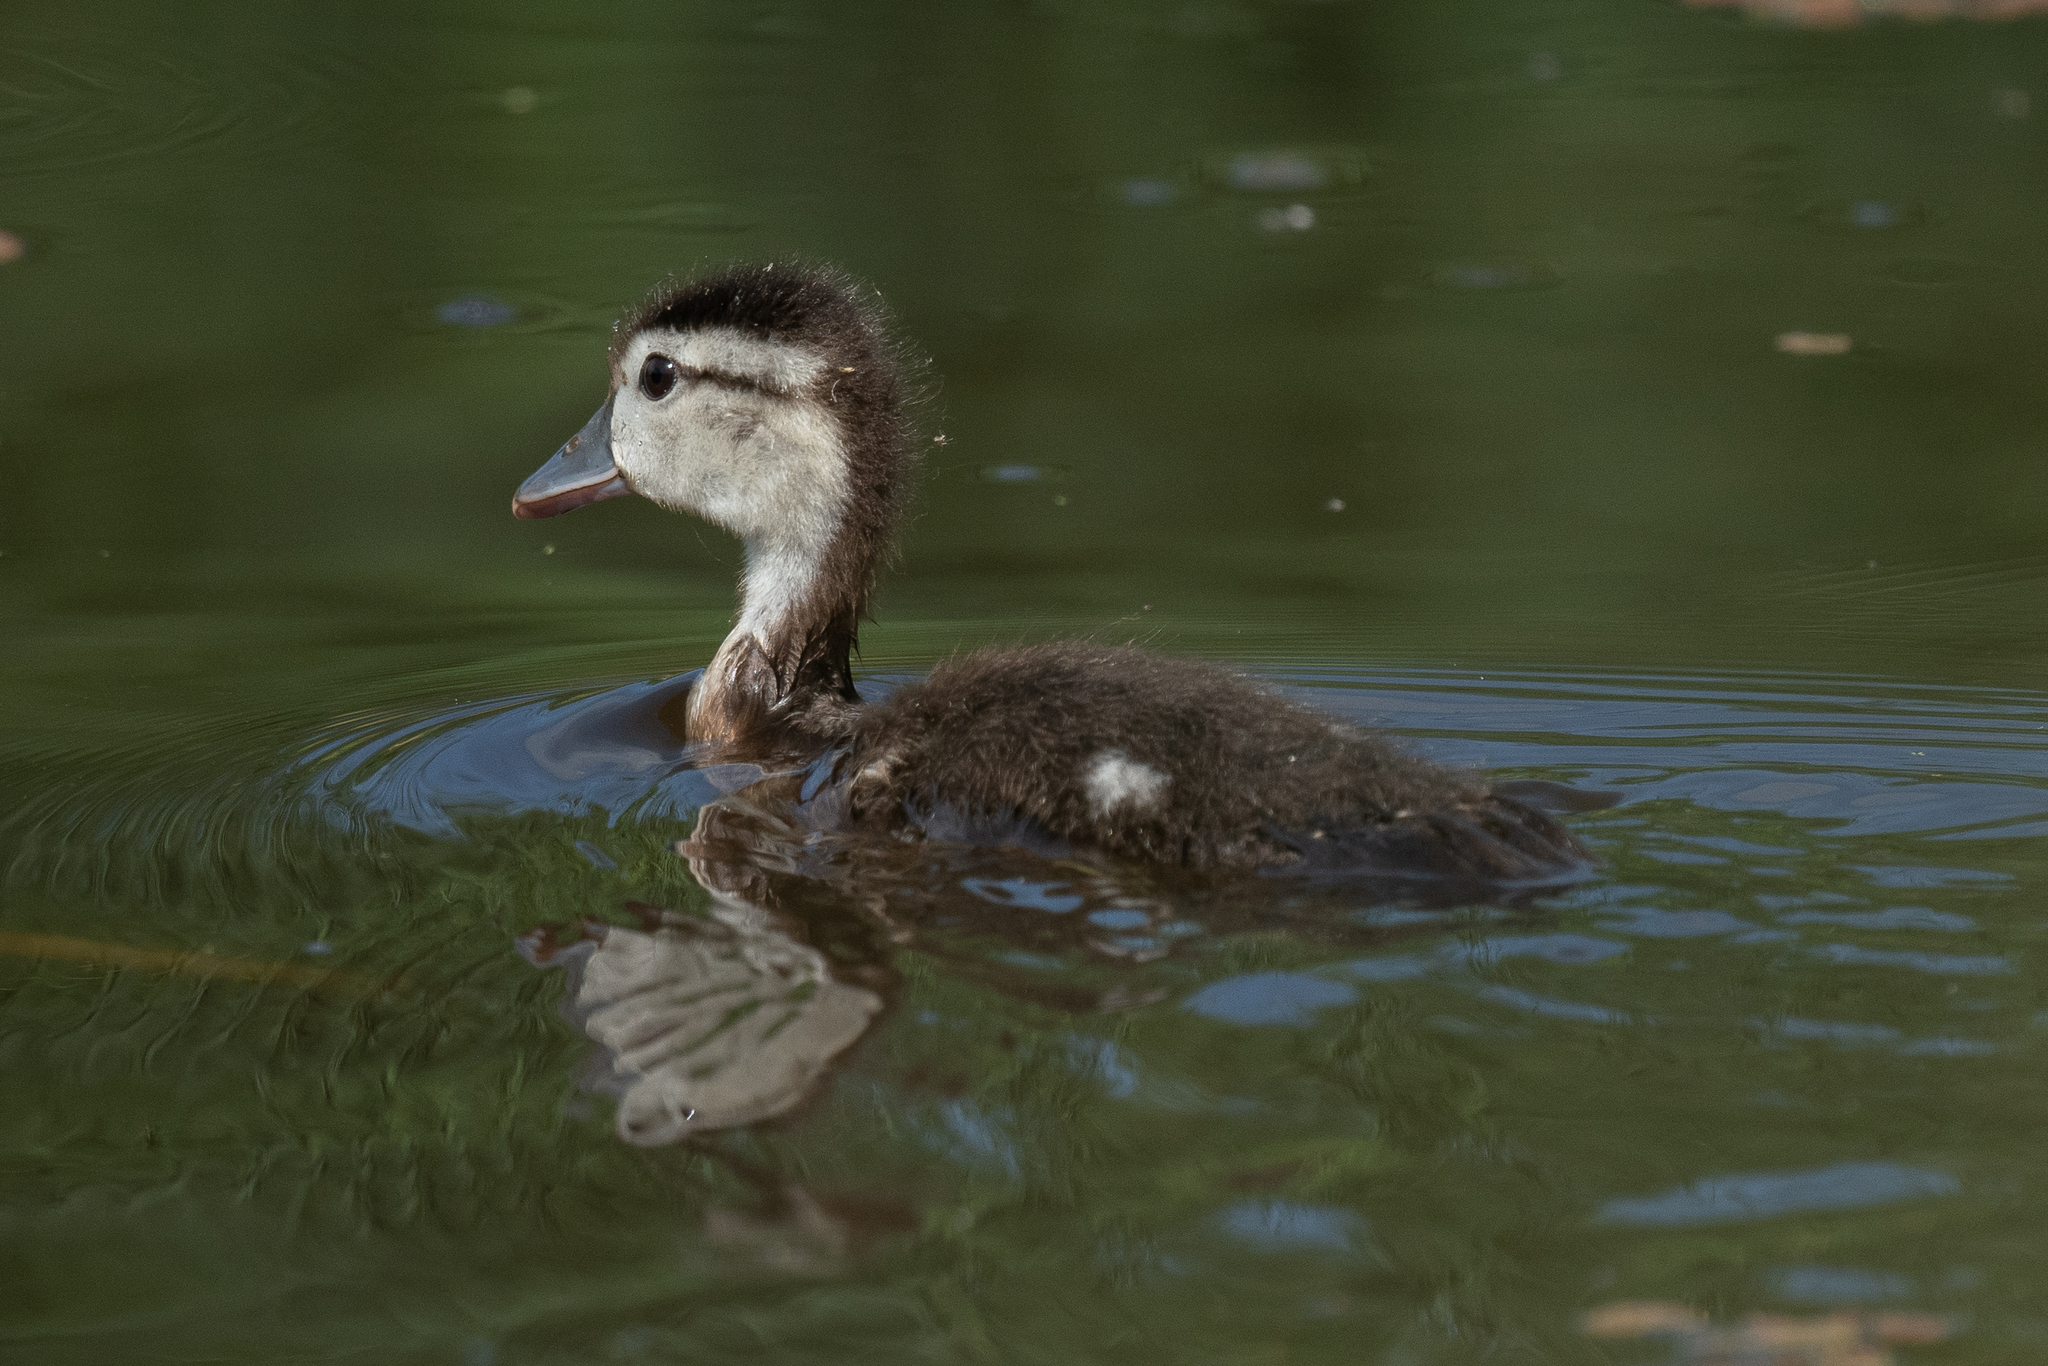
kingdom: Animalia
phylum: Chordata
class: Aves
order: Anseriformes
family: Anatidae
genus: Aix
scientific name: Aix sponsa
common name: Wood duck
